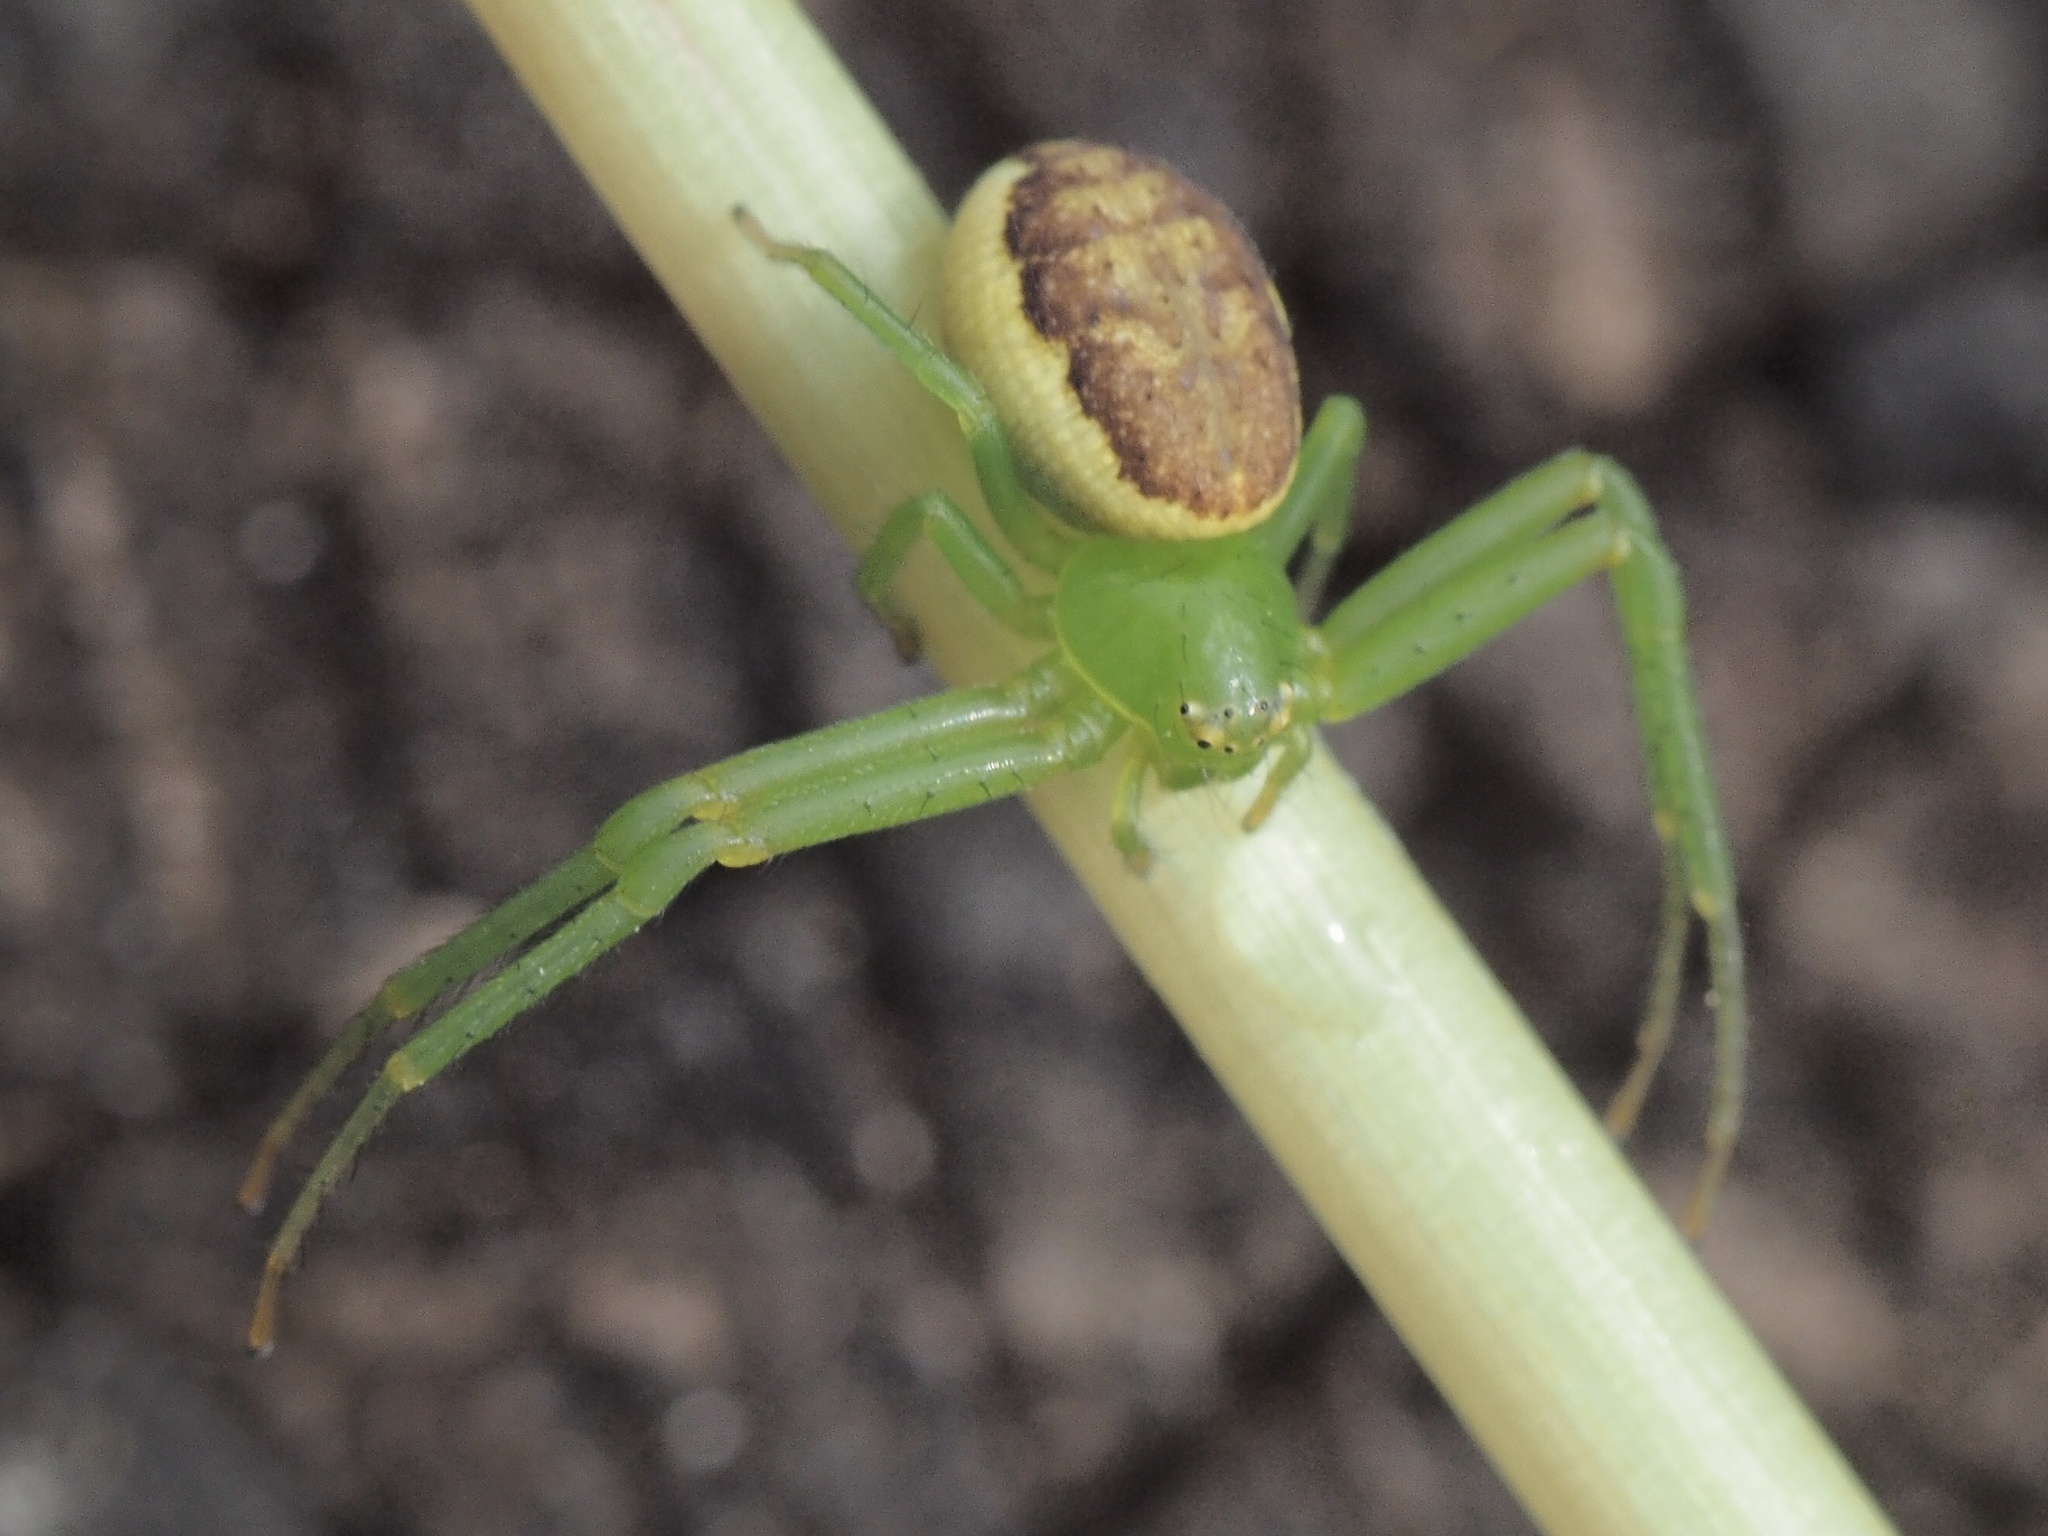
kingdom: Animalia
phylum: Arthropoda
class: Arachnida
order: Araneae
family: Thomisidae
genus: Diaea
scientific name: Diaea dorsata
